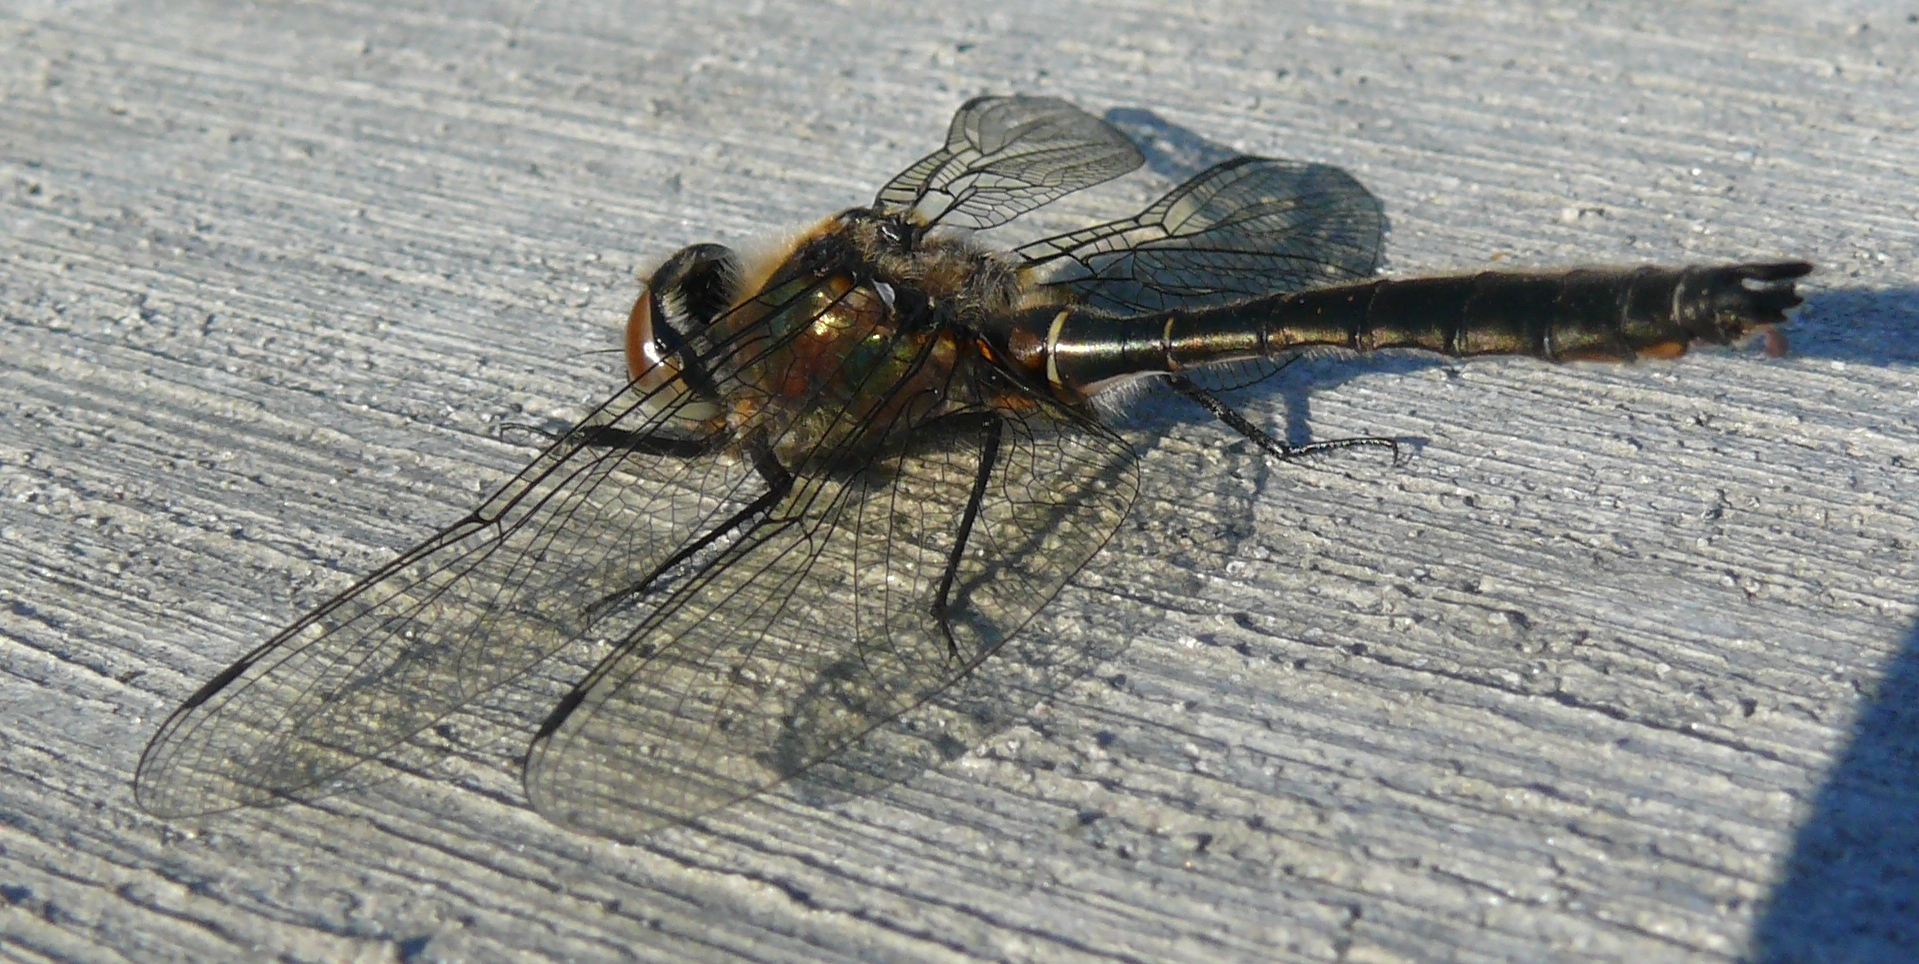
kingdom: Animalia
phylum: Arthropoda
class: Insecta
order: Odonata
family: Corduliidae
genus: Cordulia
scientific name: Cordulia shurtleffii
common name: American emerald
